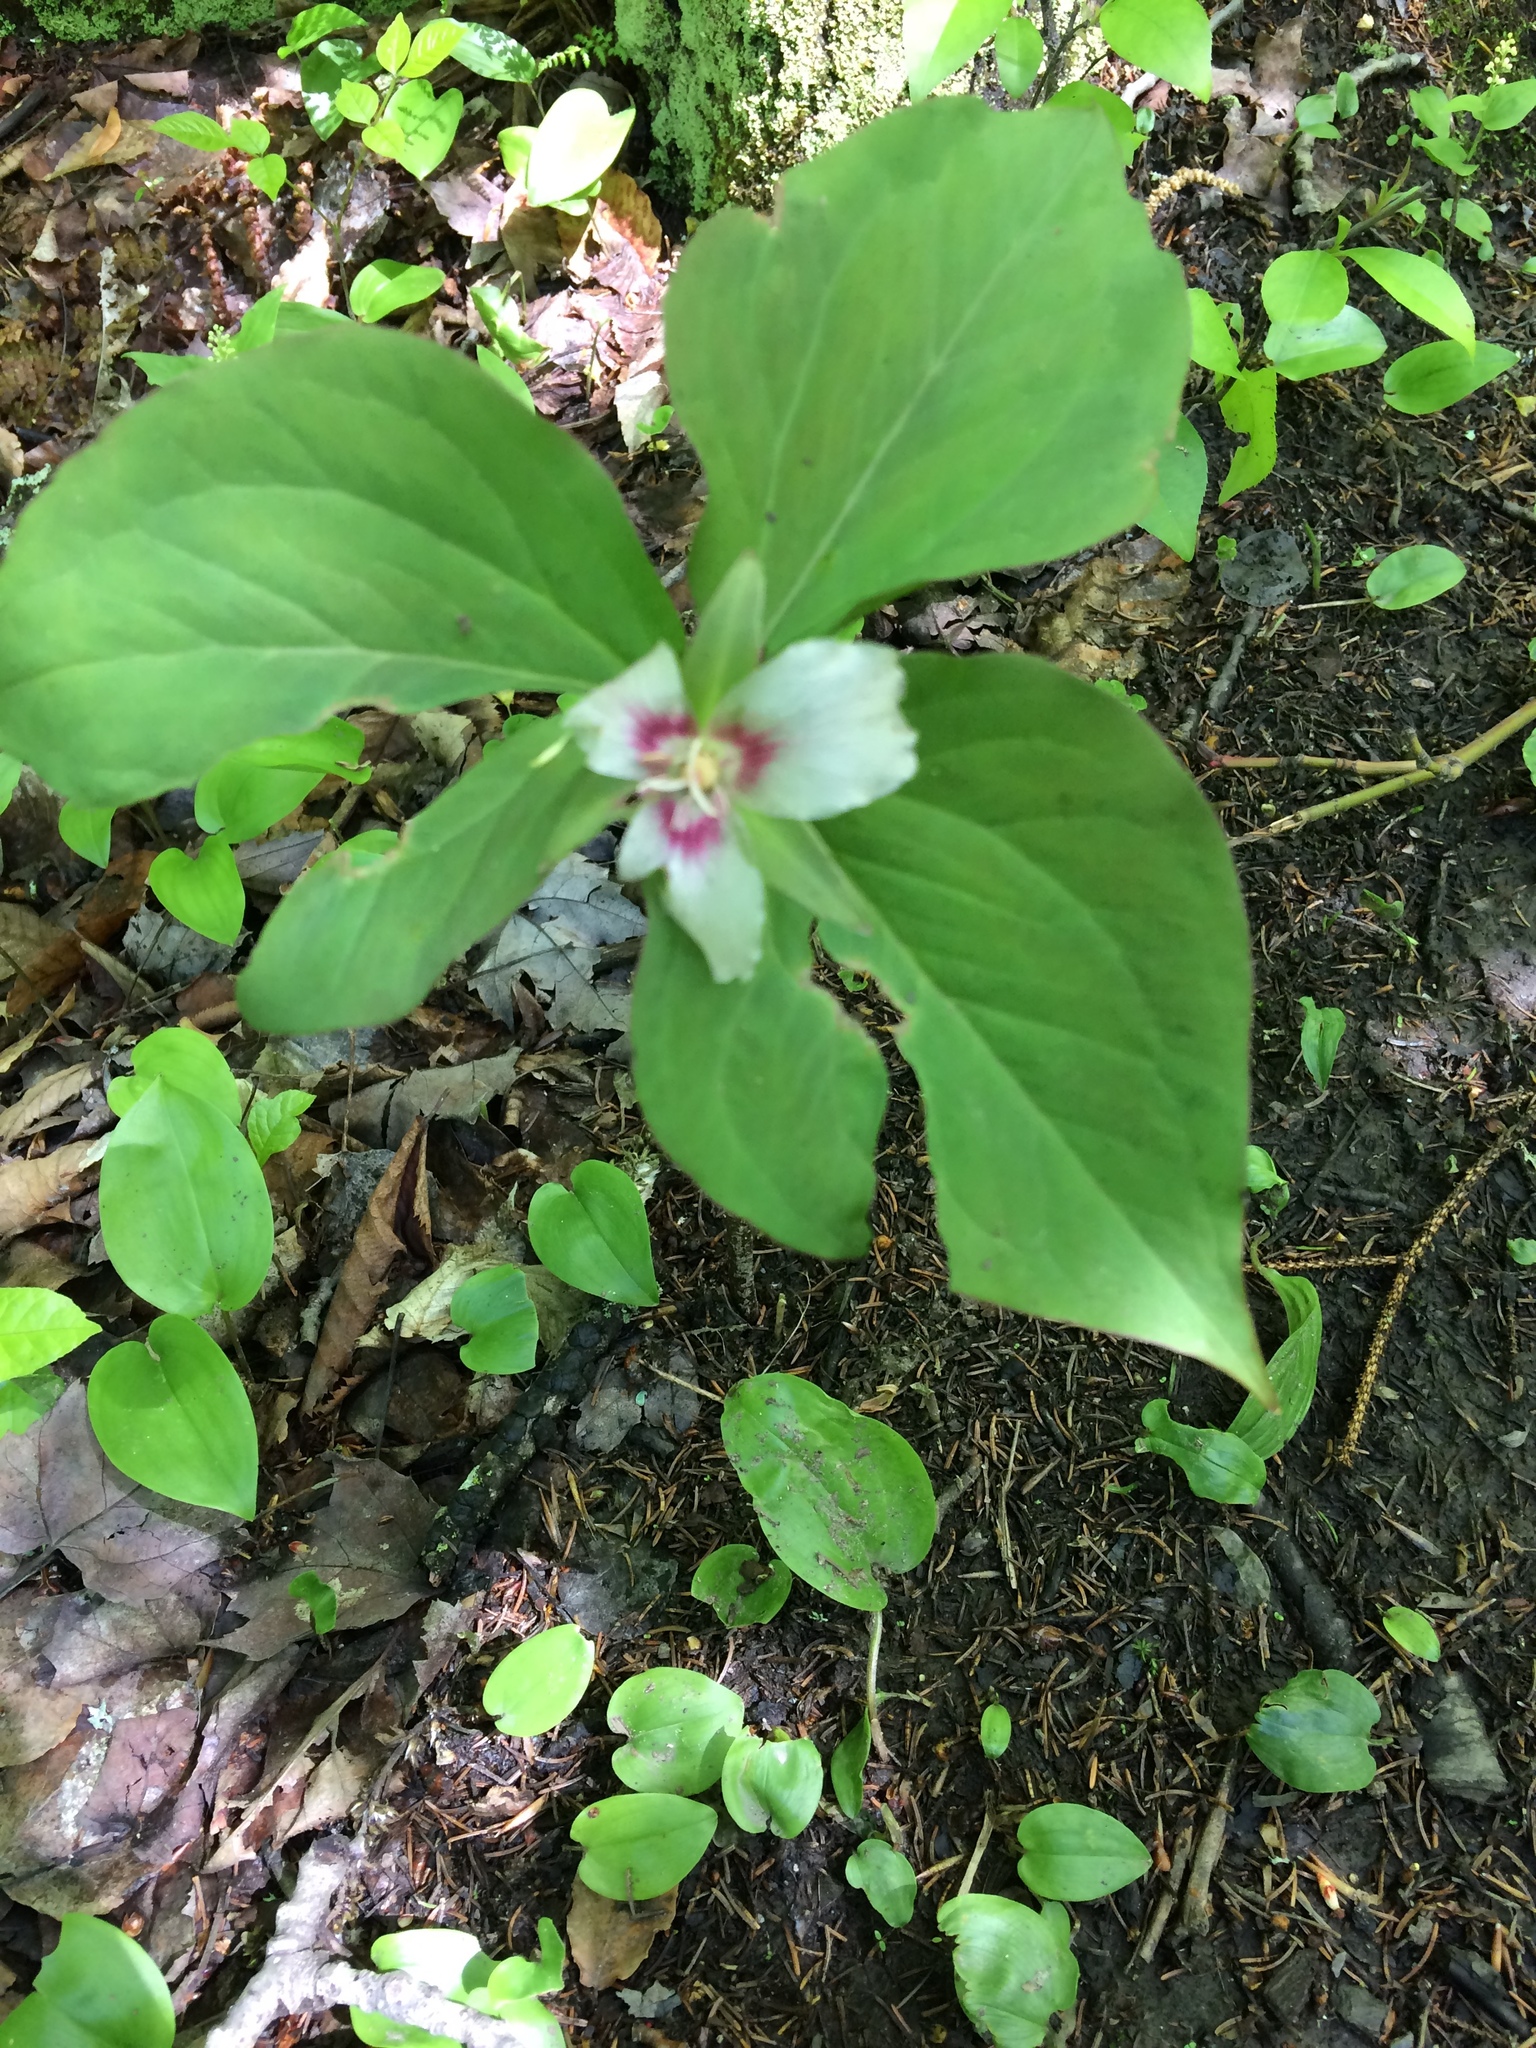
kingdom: Plantae
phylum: Tracheophyta
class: Liliopsida
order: Liliales
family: Melanthiaceae
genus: Trillium
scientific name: Trillium undulatum
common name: Paint trillium
